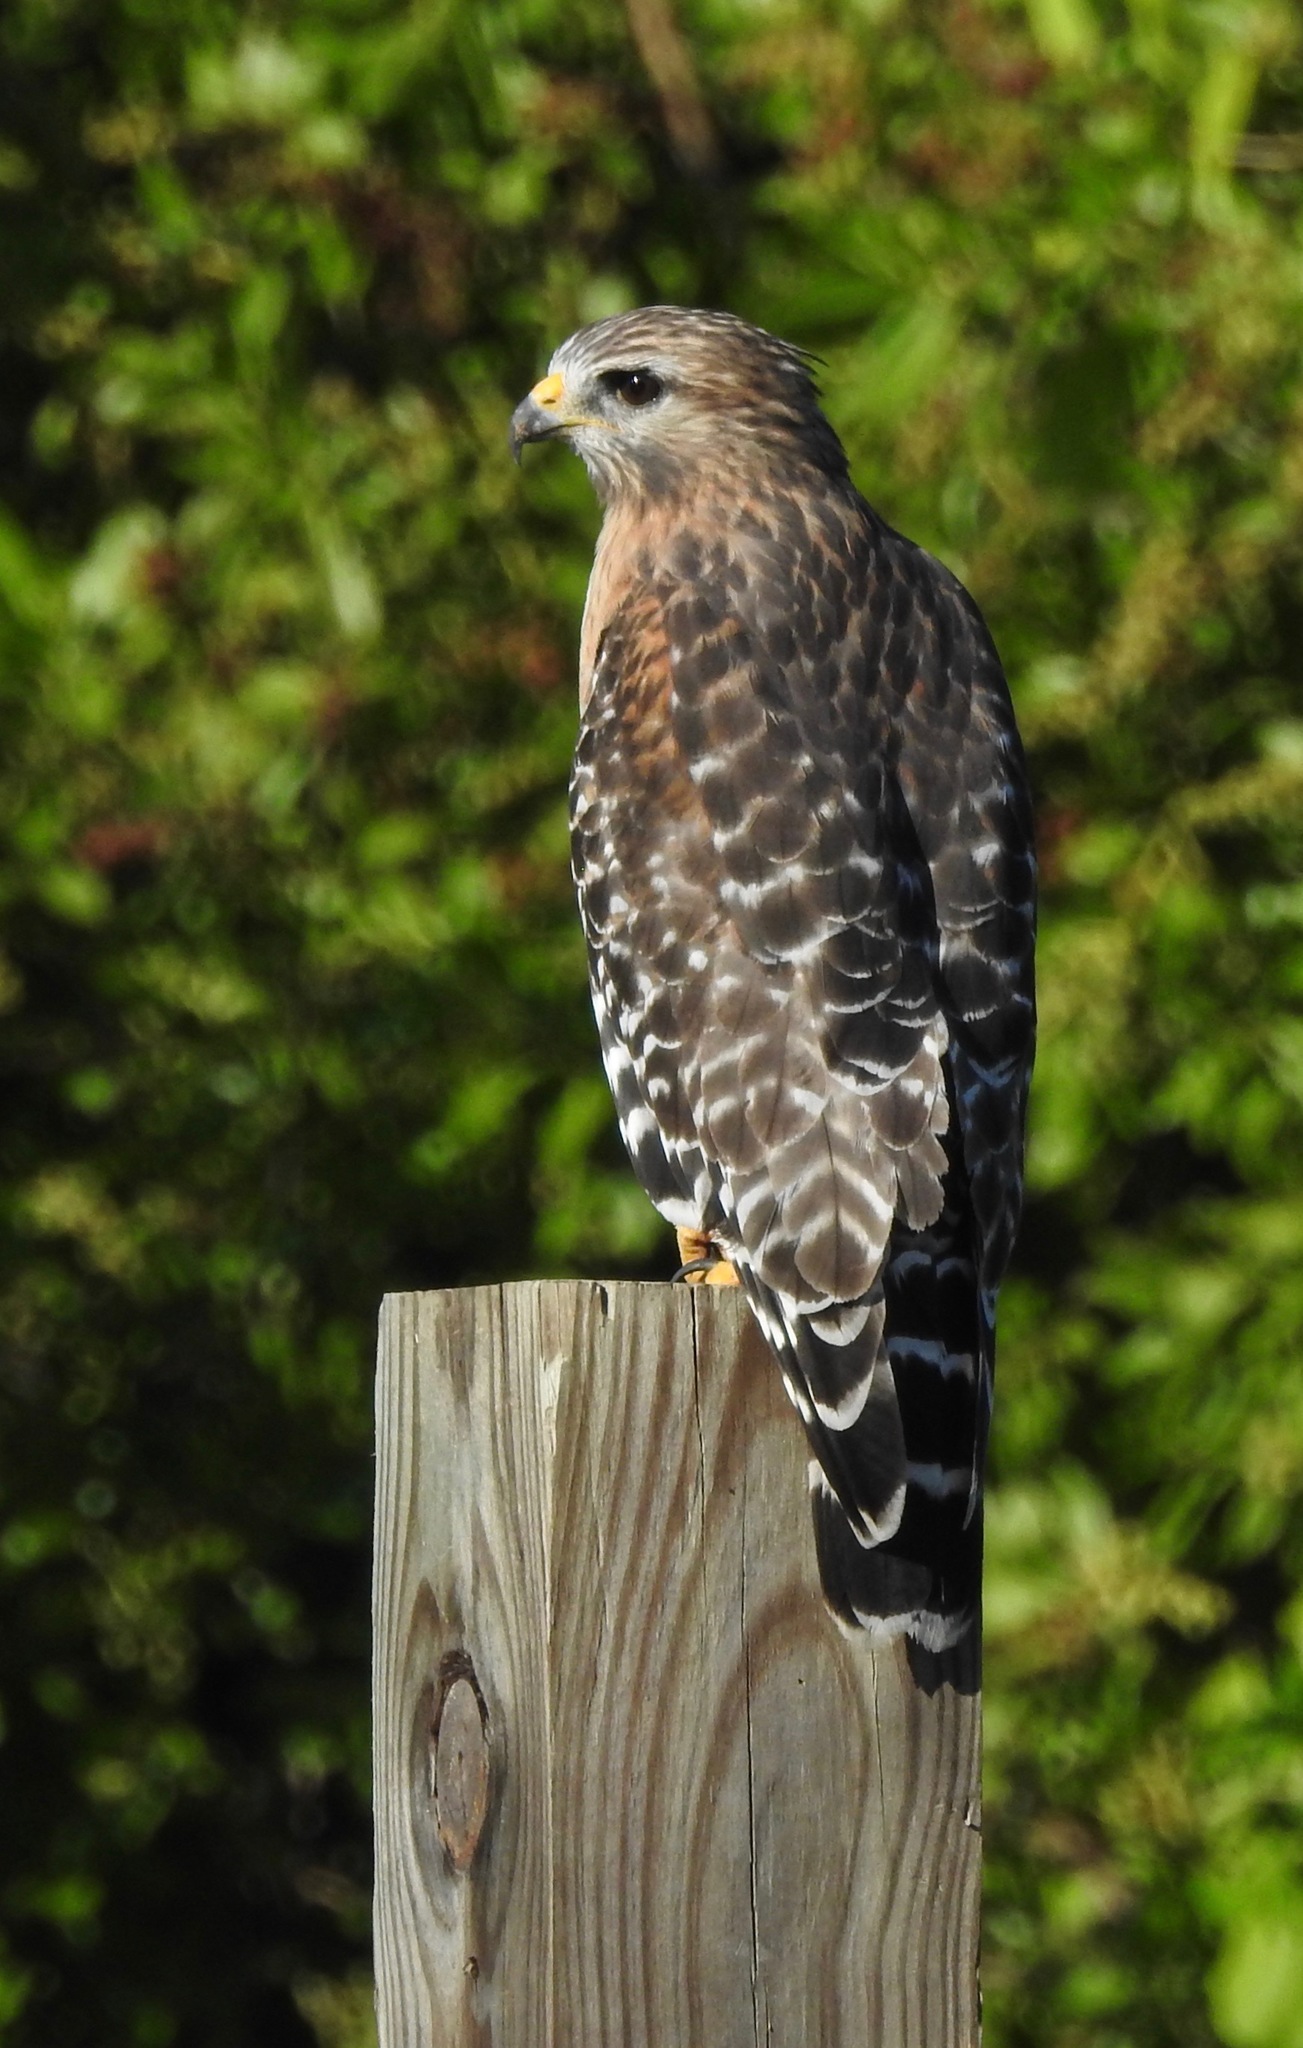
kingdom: Animalia
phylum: Chordata
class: Aves
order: Accipitriformes
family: Accipitridae
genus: Buteo
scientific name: Buteo lineatus
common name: Red-shouldered hawk
